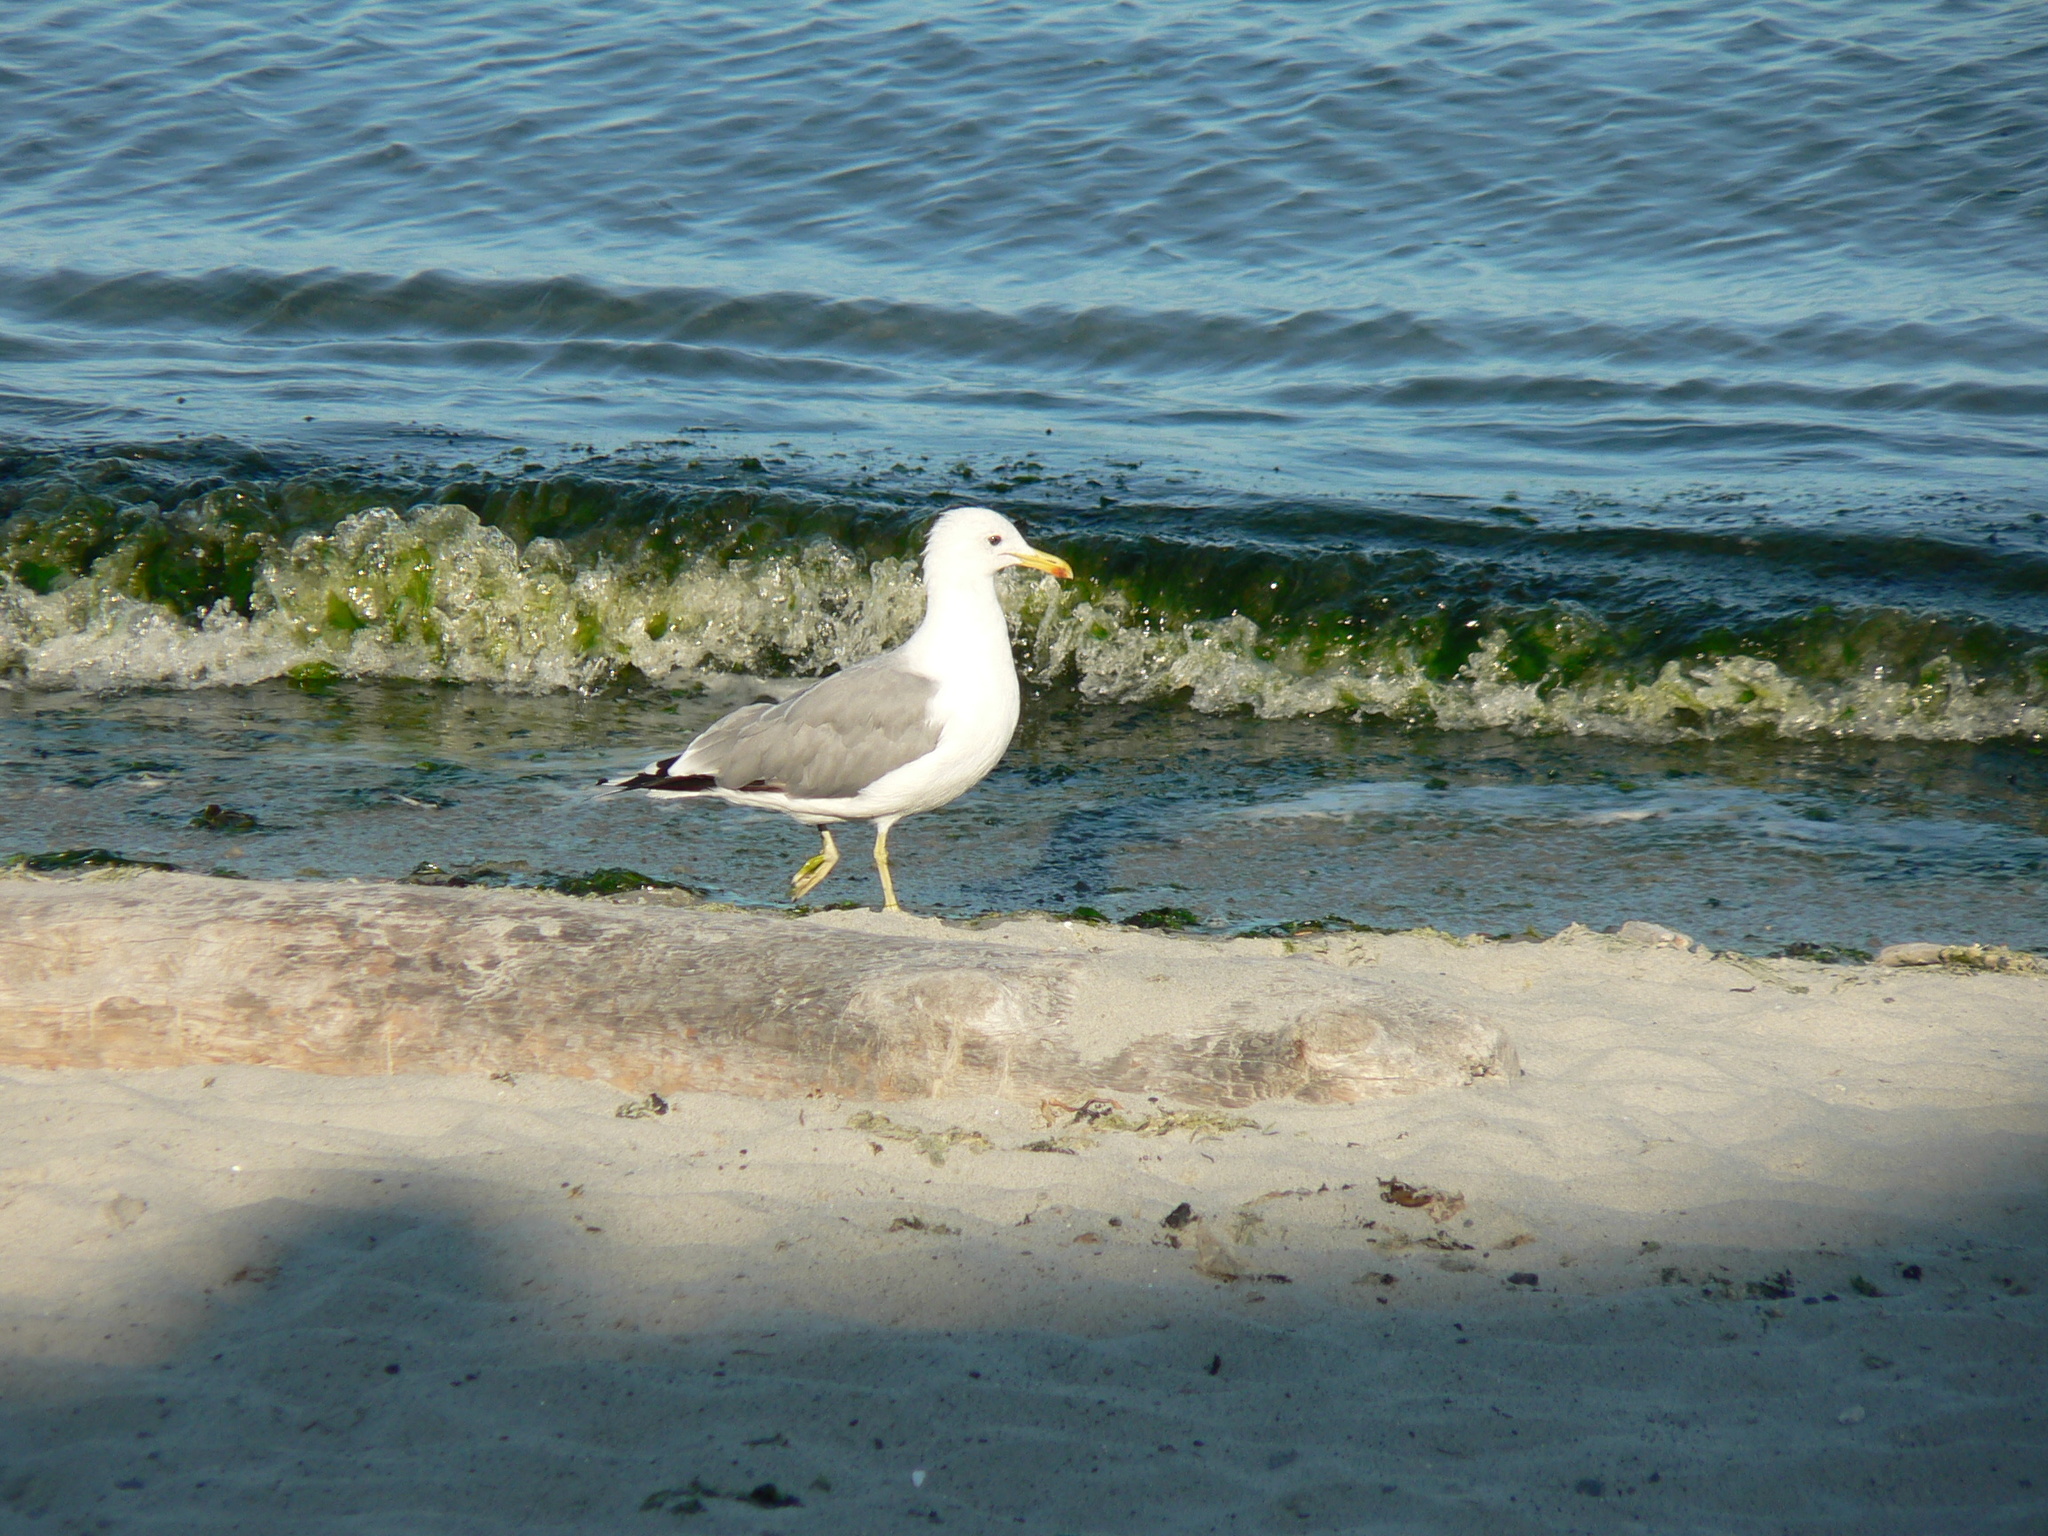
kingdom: Animalia
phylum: Chordata
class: Aves
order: Charadriiformes
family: Laridae
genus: Larus
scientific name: Larus californicus
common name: California gull
